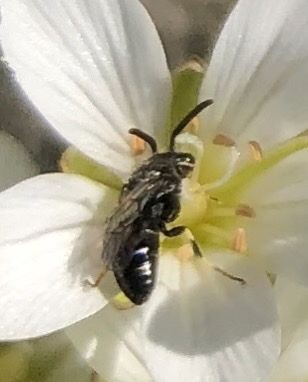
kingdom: Animalia
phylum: Arthropoda
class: Insecta
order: Hymenoptera
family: Colletidae
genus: Hylaeus
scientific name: Hylaeus hyalinatus
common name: Hyaline masked bee
